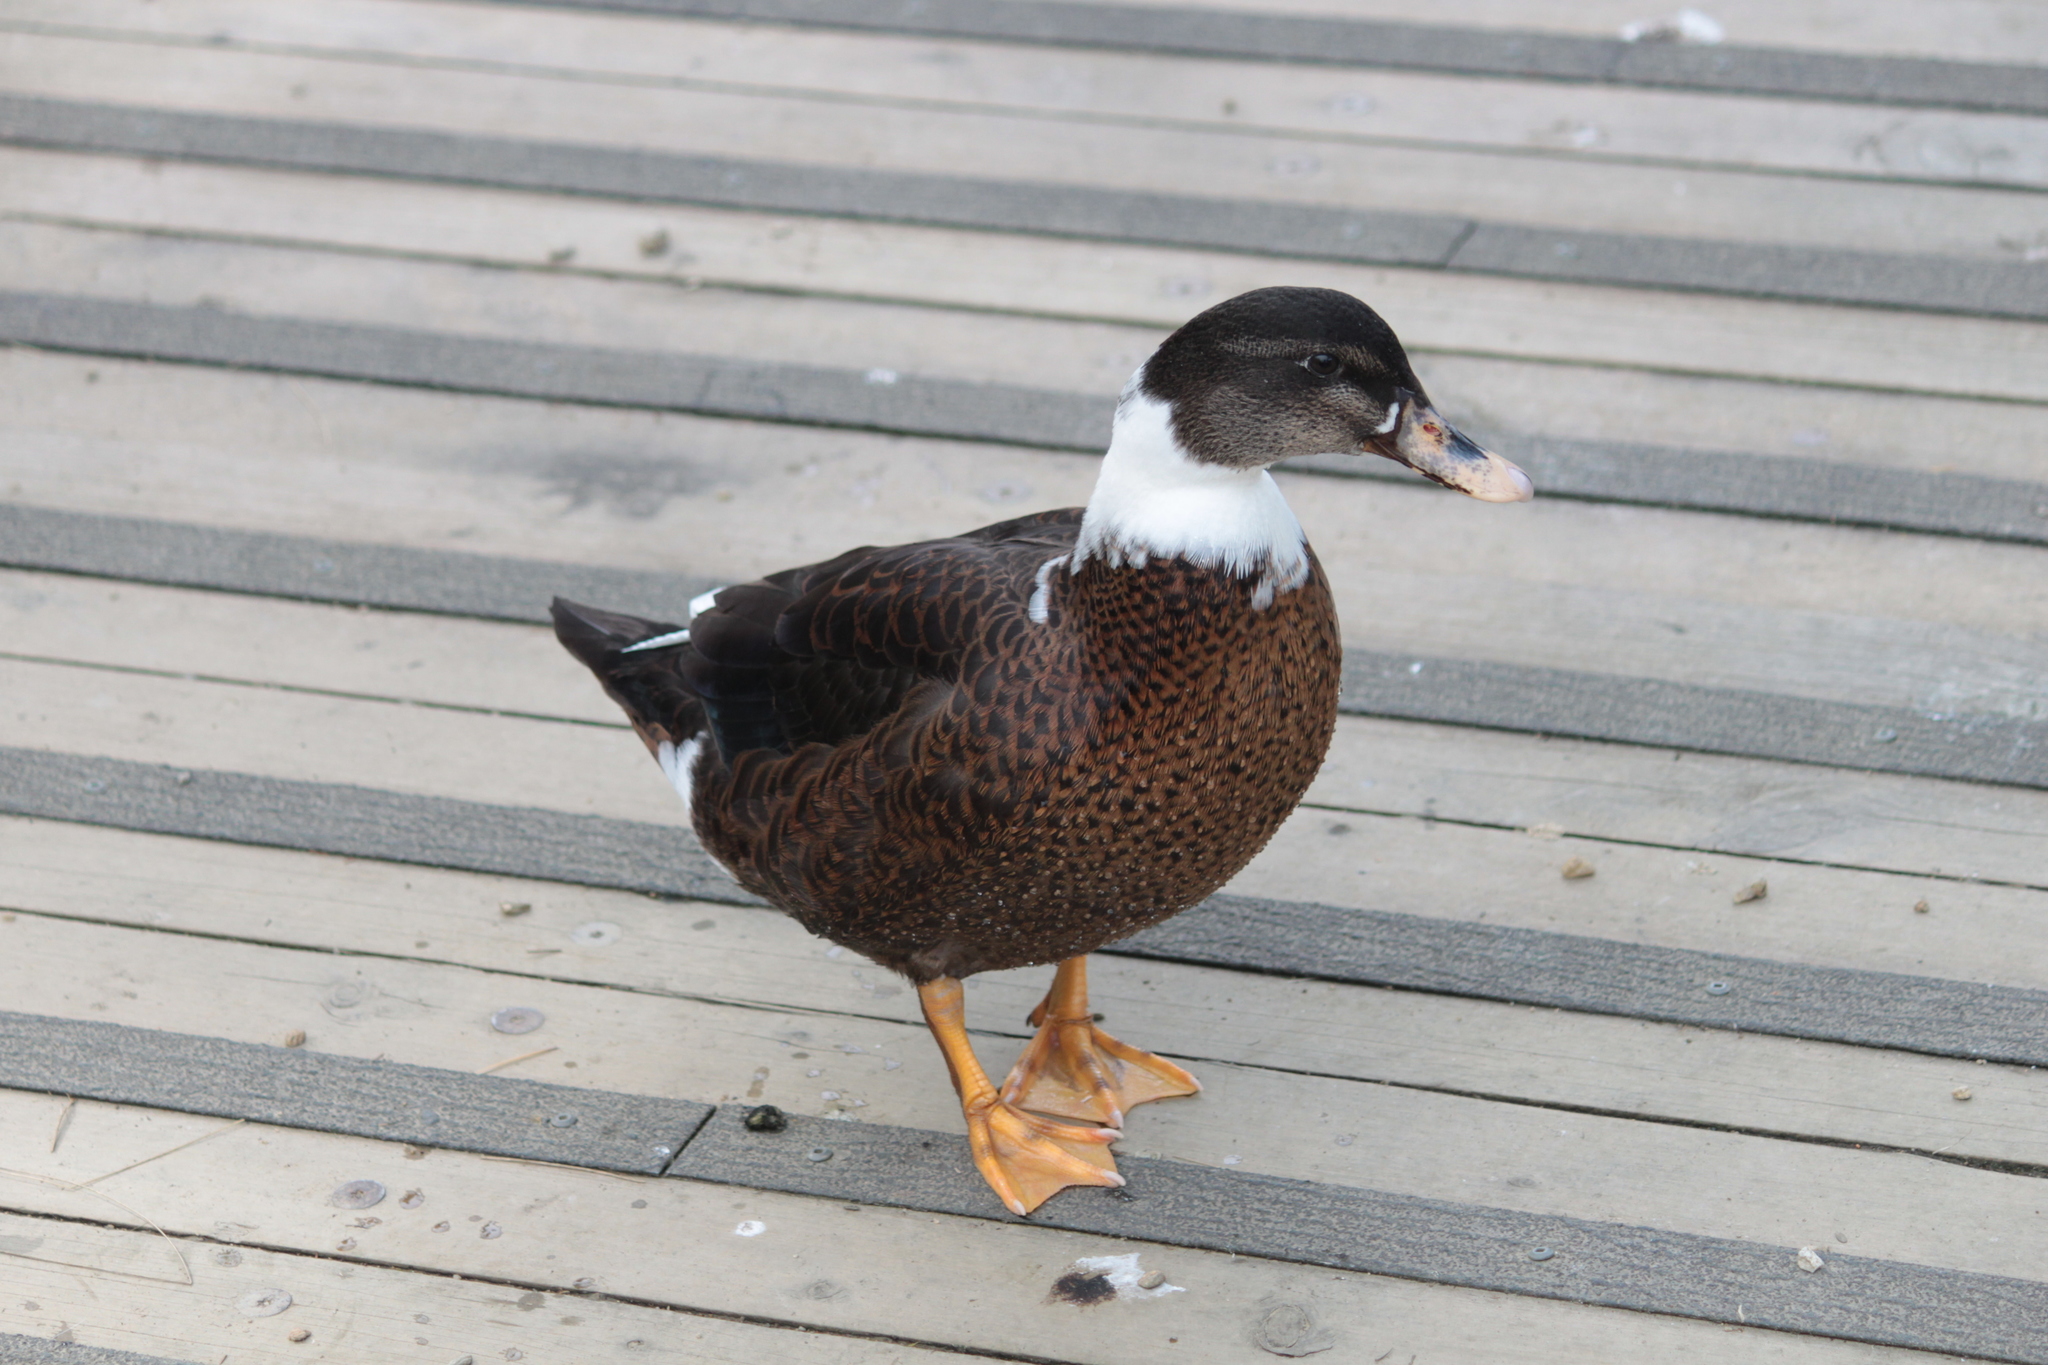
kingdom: Animalia
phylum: Chordata
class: Aves
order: Anseriformes
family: Anatidae
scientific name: Anatidae
